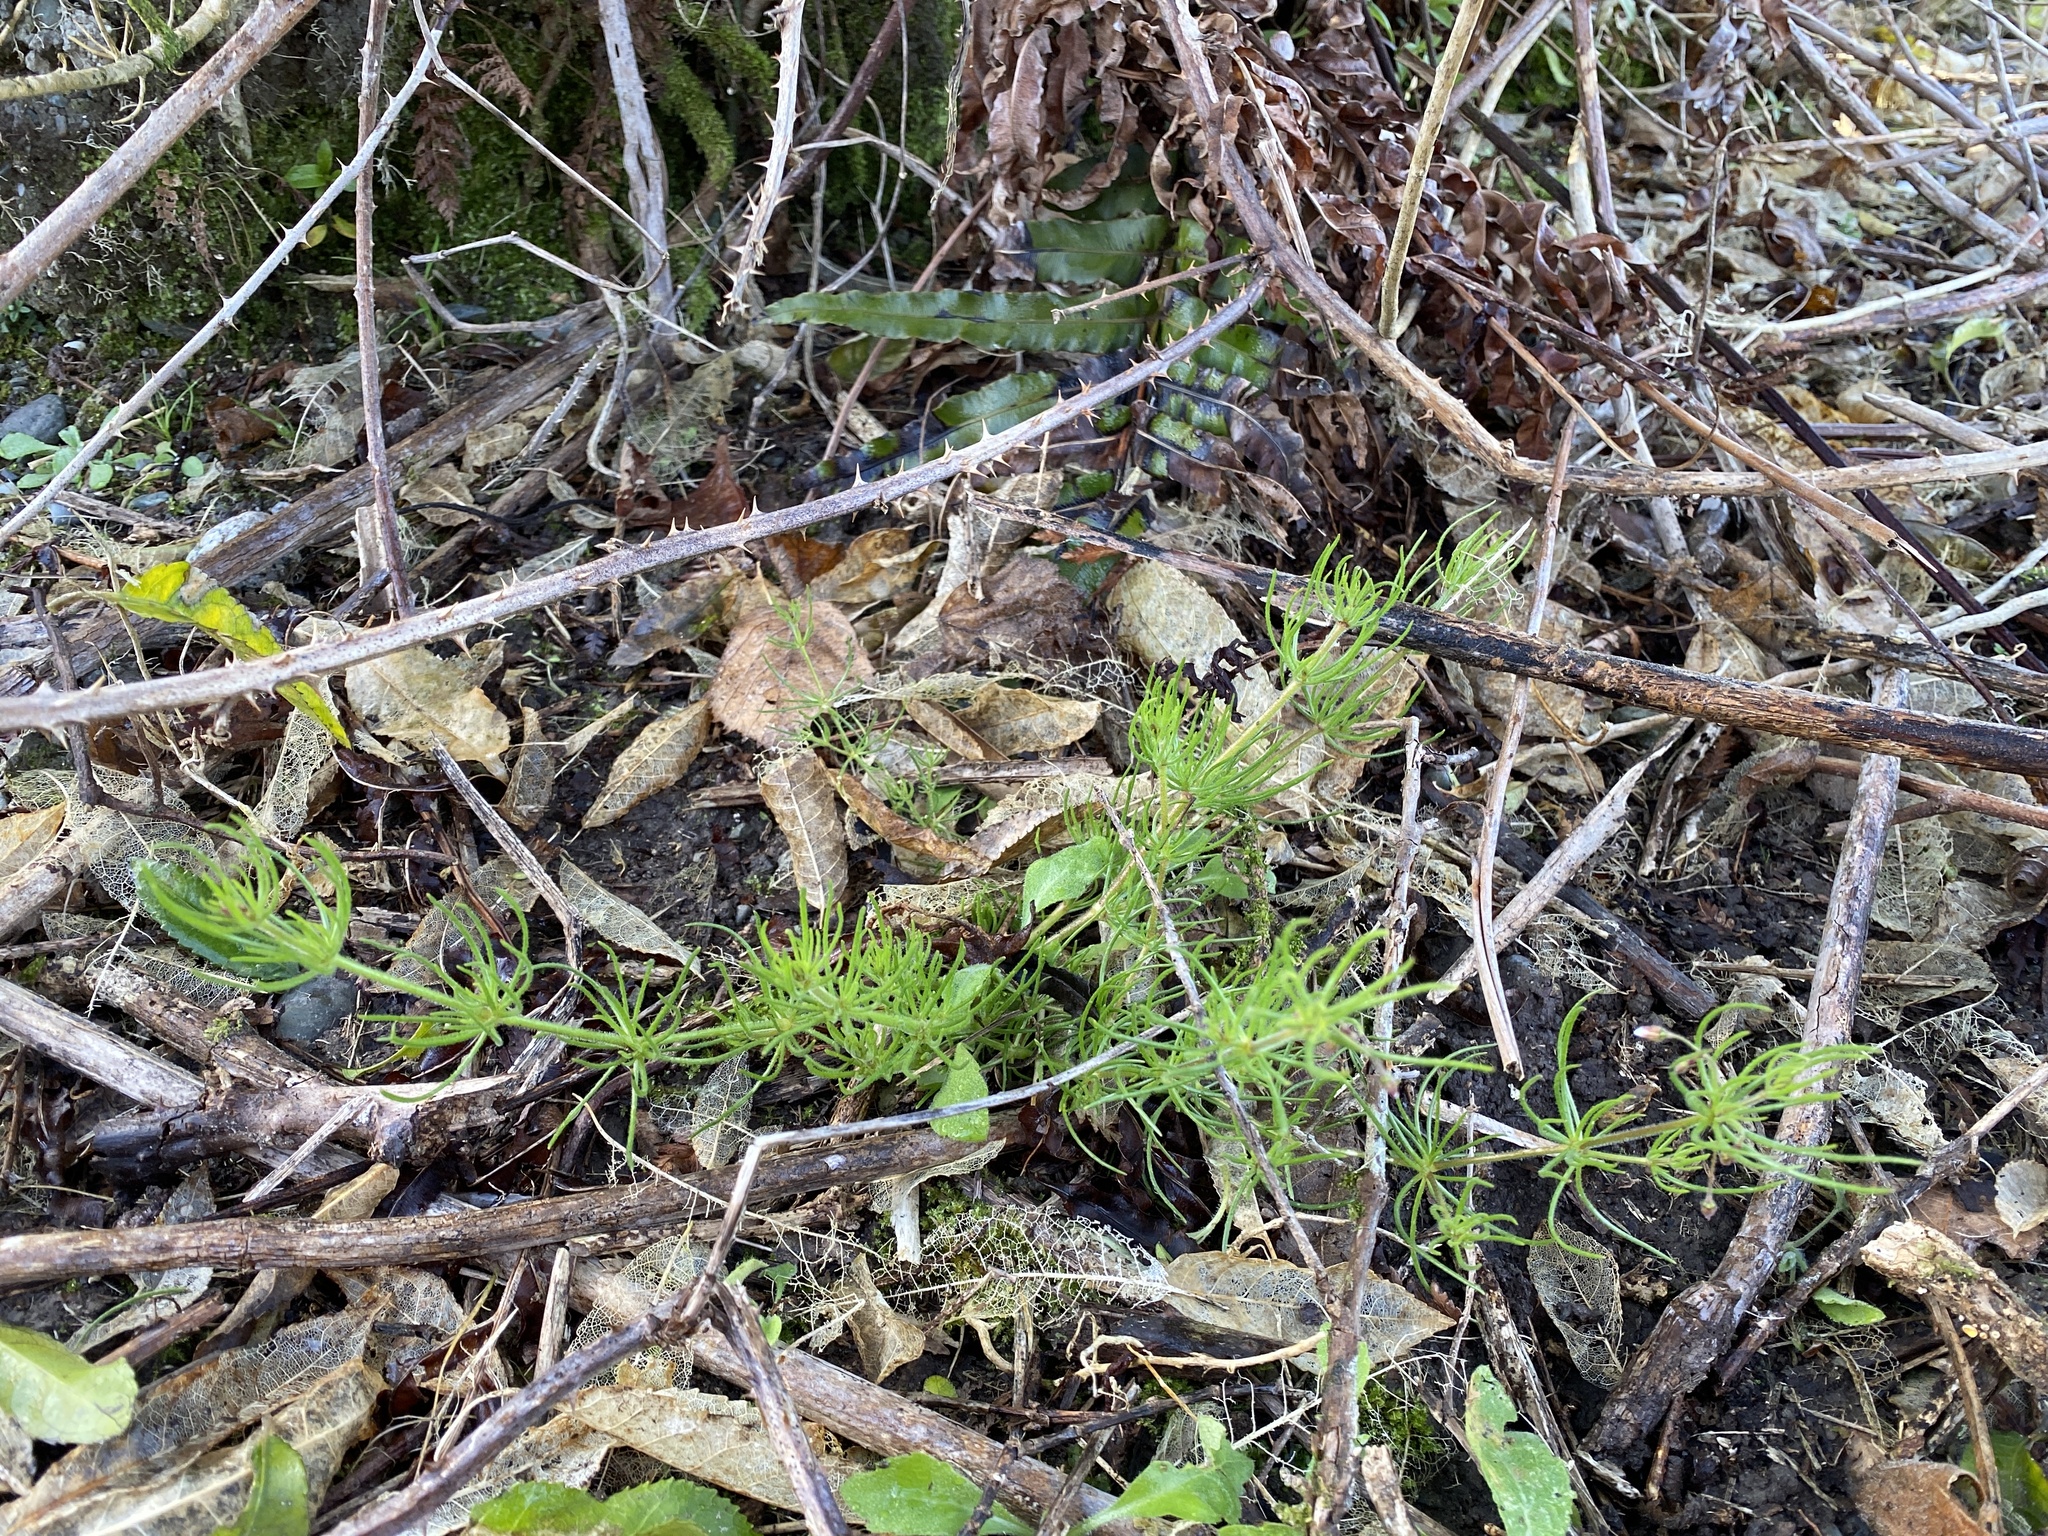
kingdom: Plantae
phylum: Tracheophyta
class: Magnoliopsida
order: Caryophyllales
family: Caryophyllaceae
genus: Spergula
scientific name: Spergula arvensis
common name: Corn spurrey
